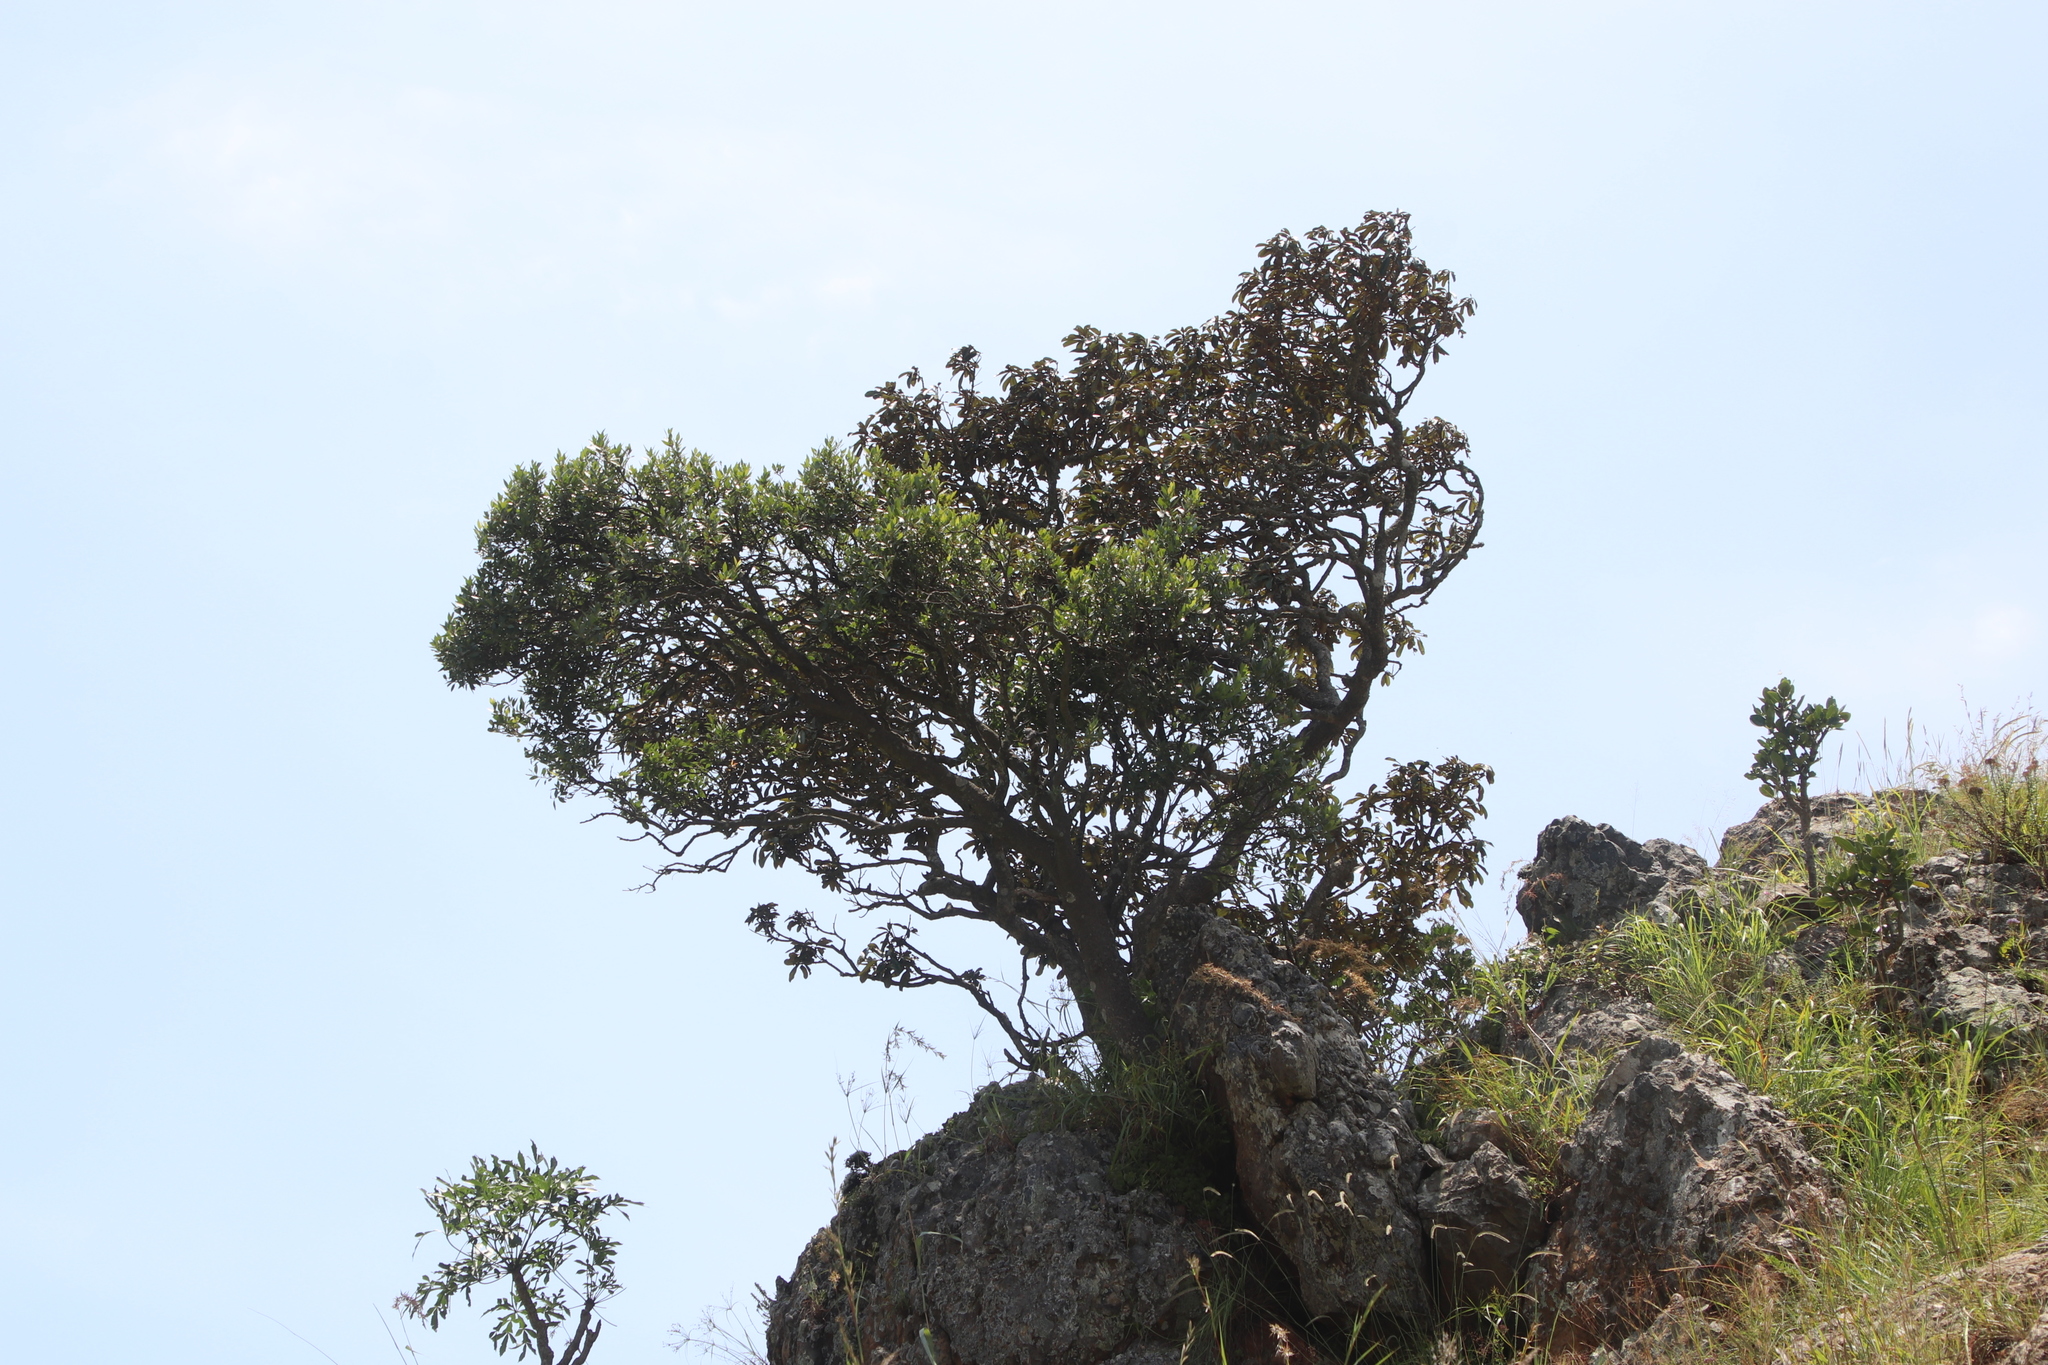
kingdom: Plantae
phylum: Tracheophyta
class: Magnoliopsida
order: Celastrales
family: Celastraceae
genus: Pterocelastrus
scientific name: Pterocelastrus echinatus
